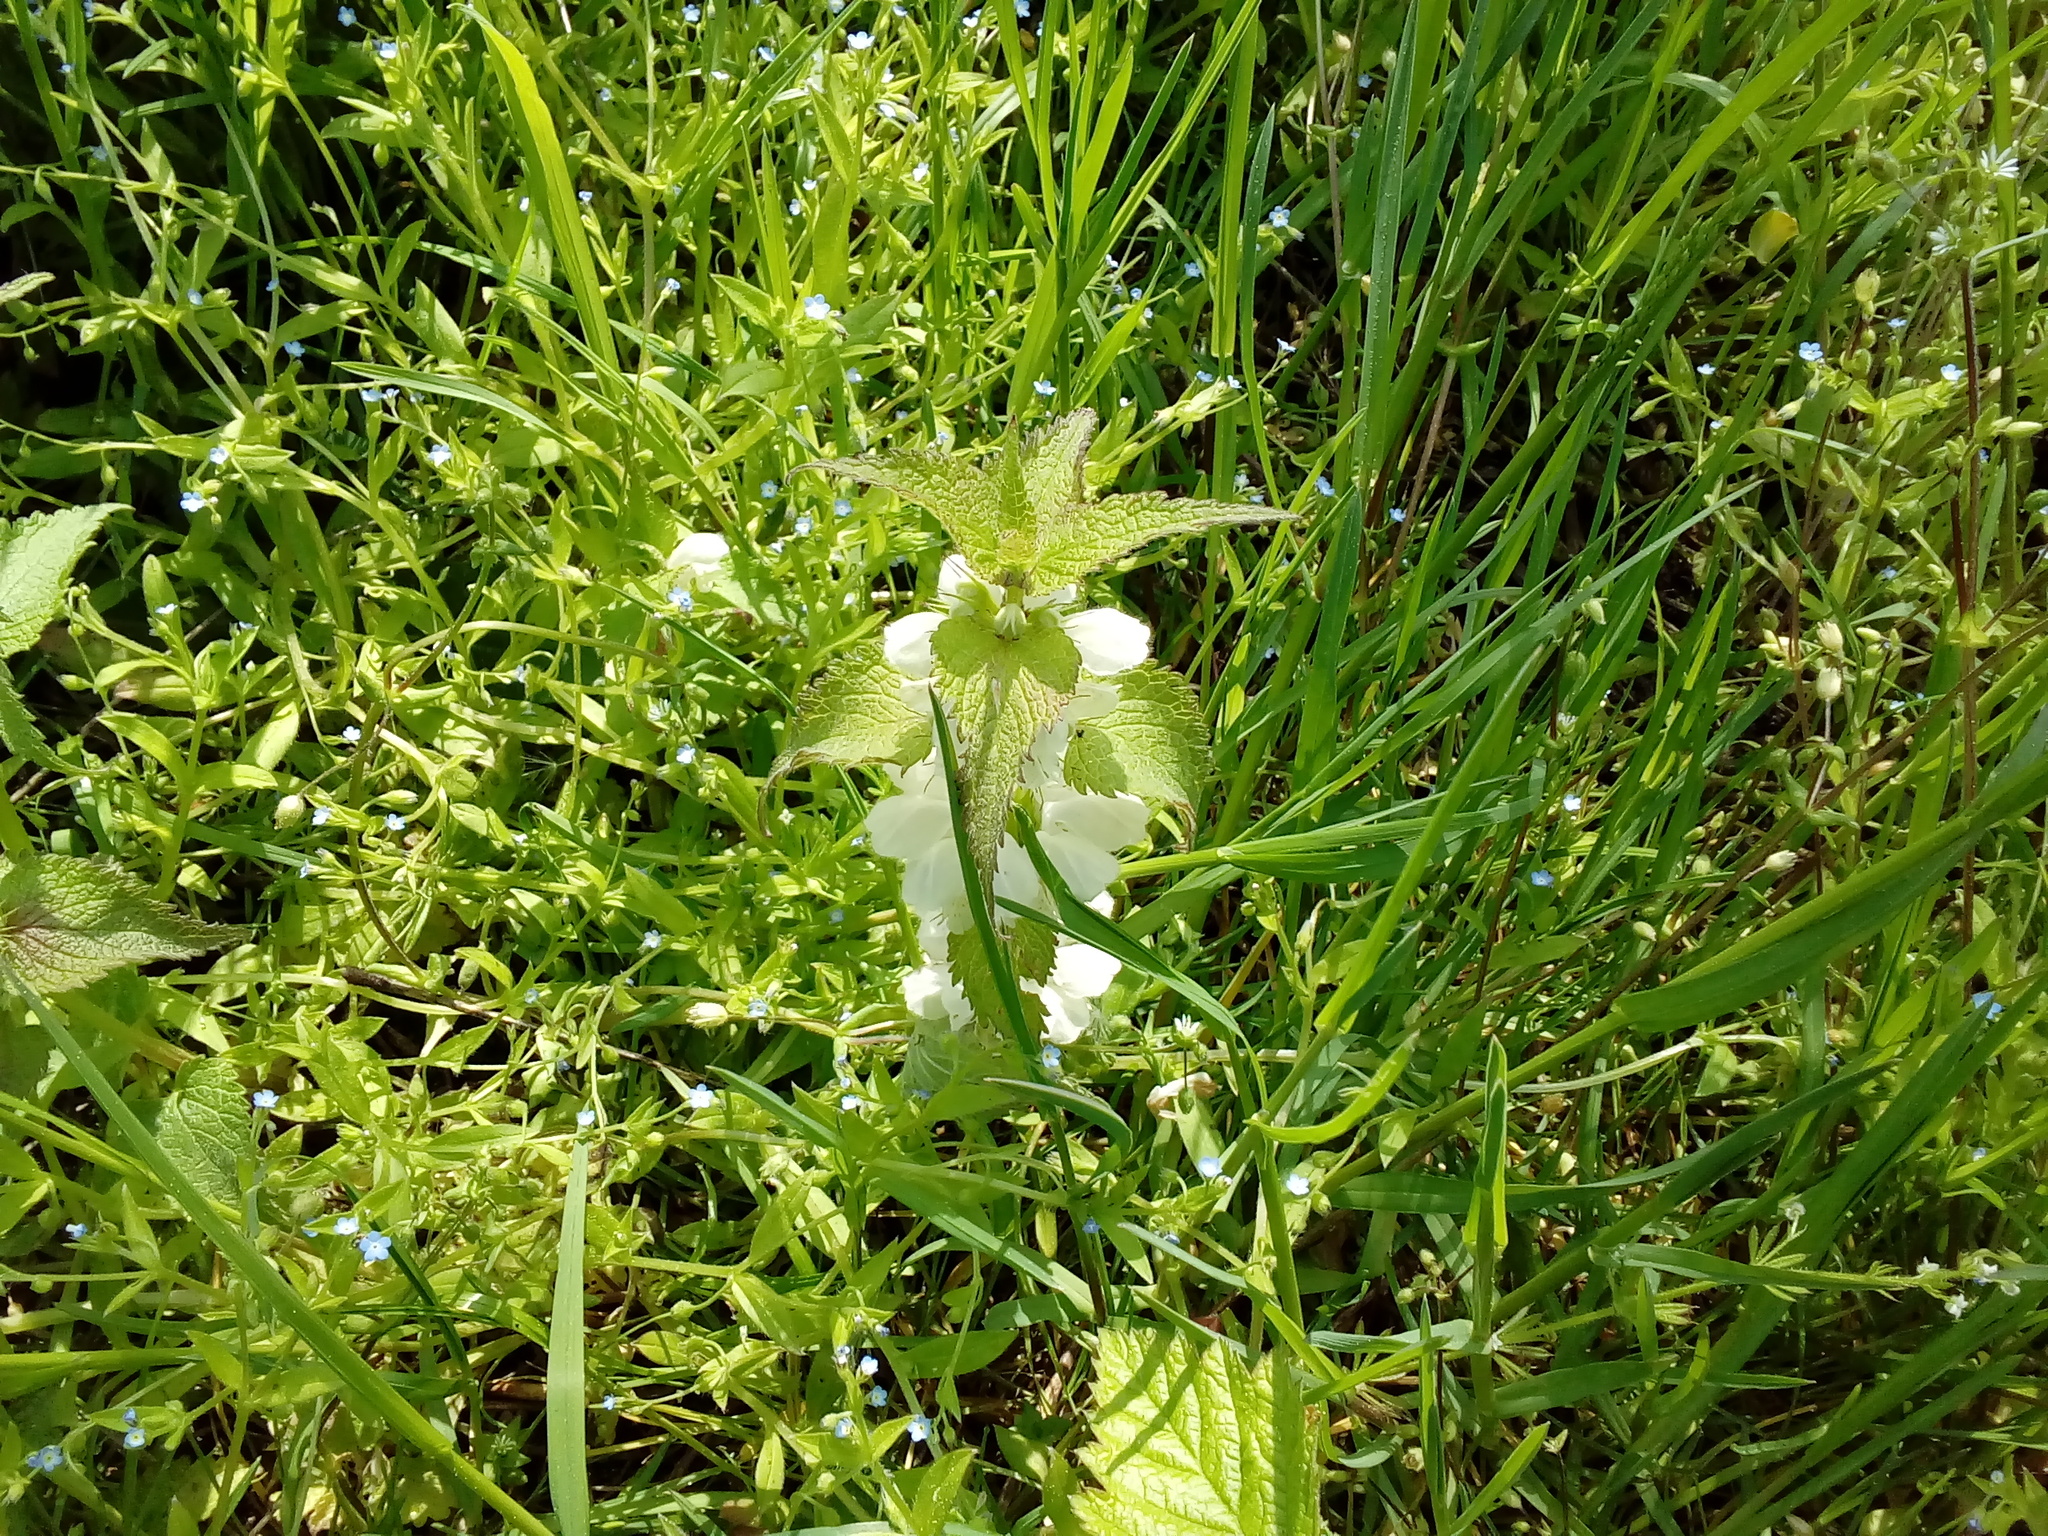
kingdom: Plantae
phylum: Tracheophyta
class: Magnoliopsida
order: Lamiales
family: Lamiaceae
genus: Lamium
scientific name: Lamium album
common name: White dead-nettle
